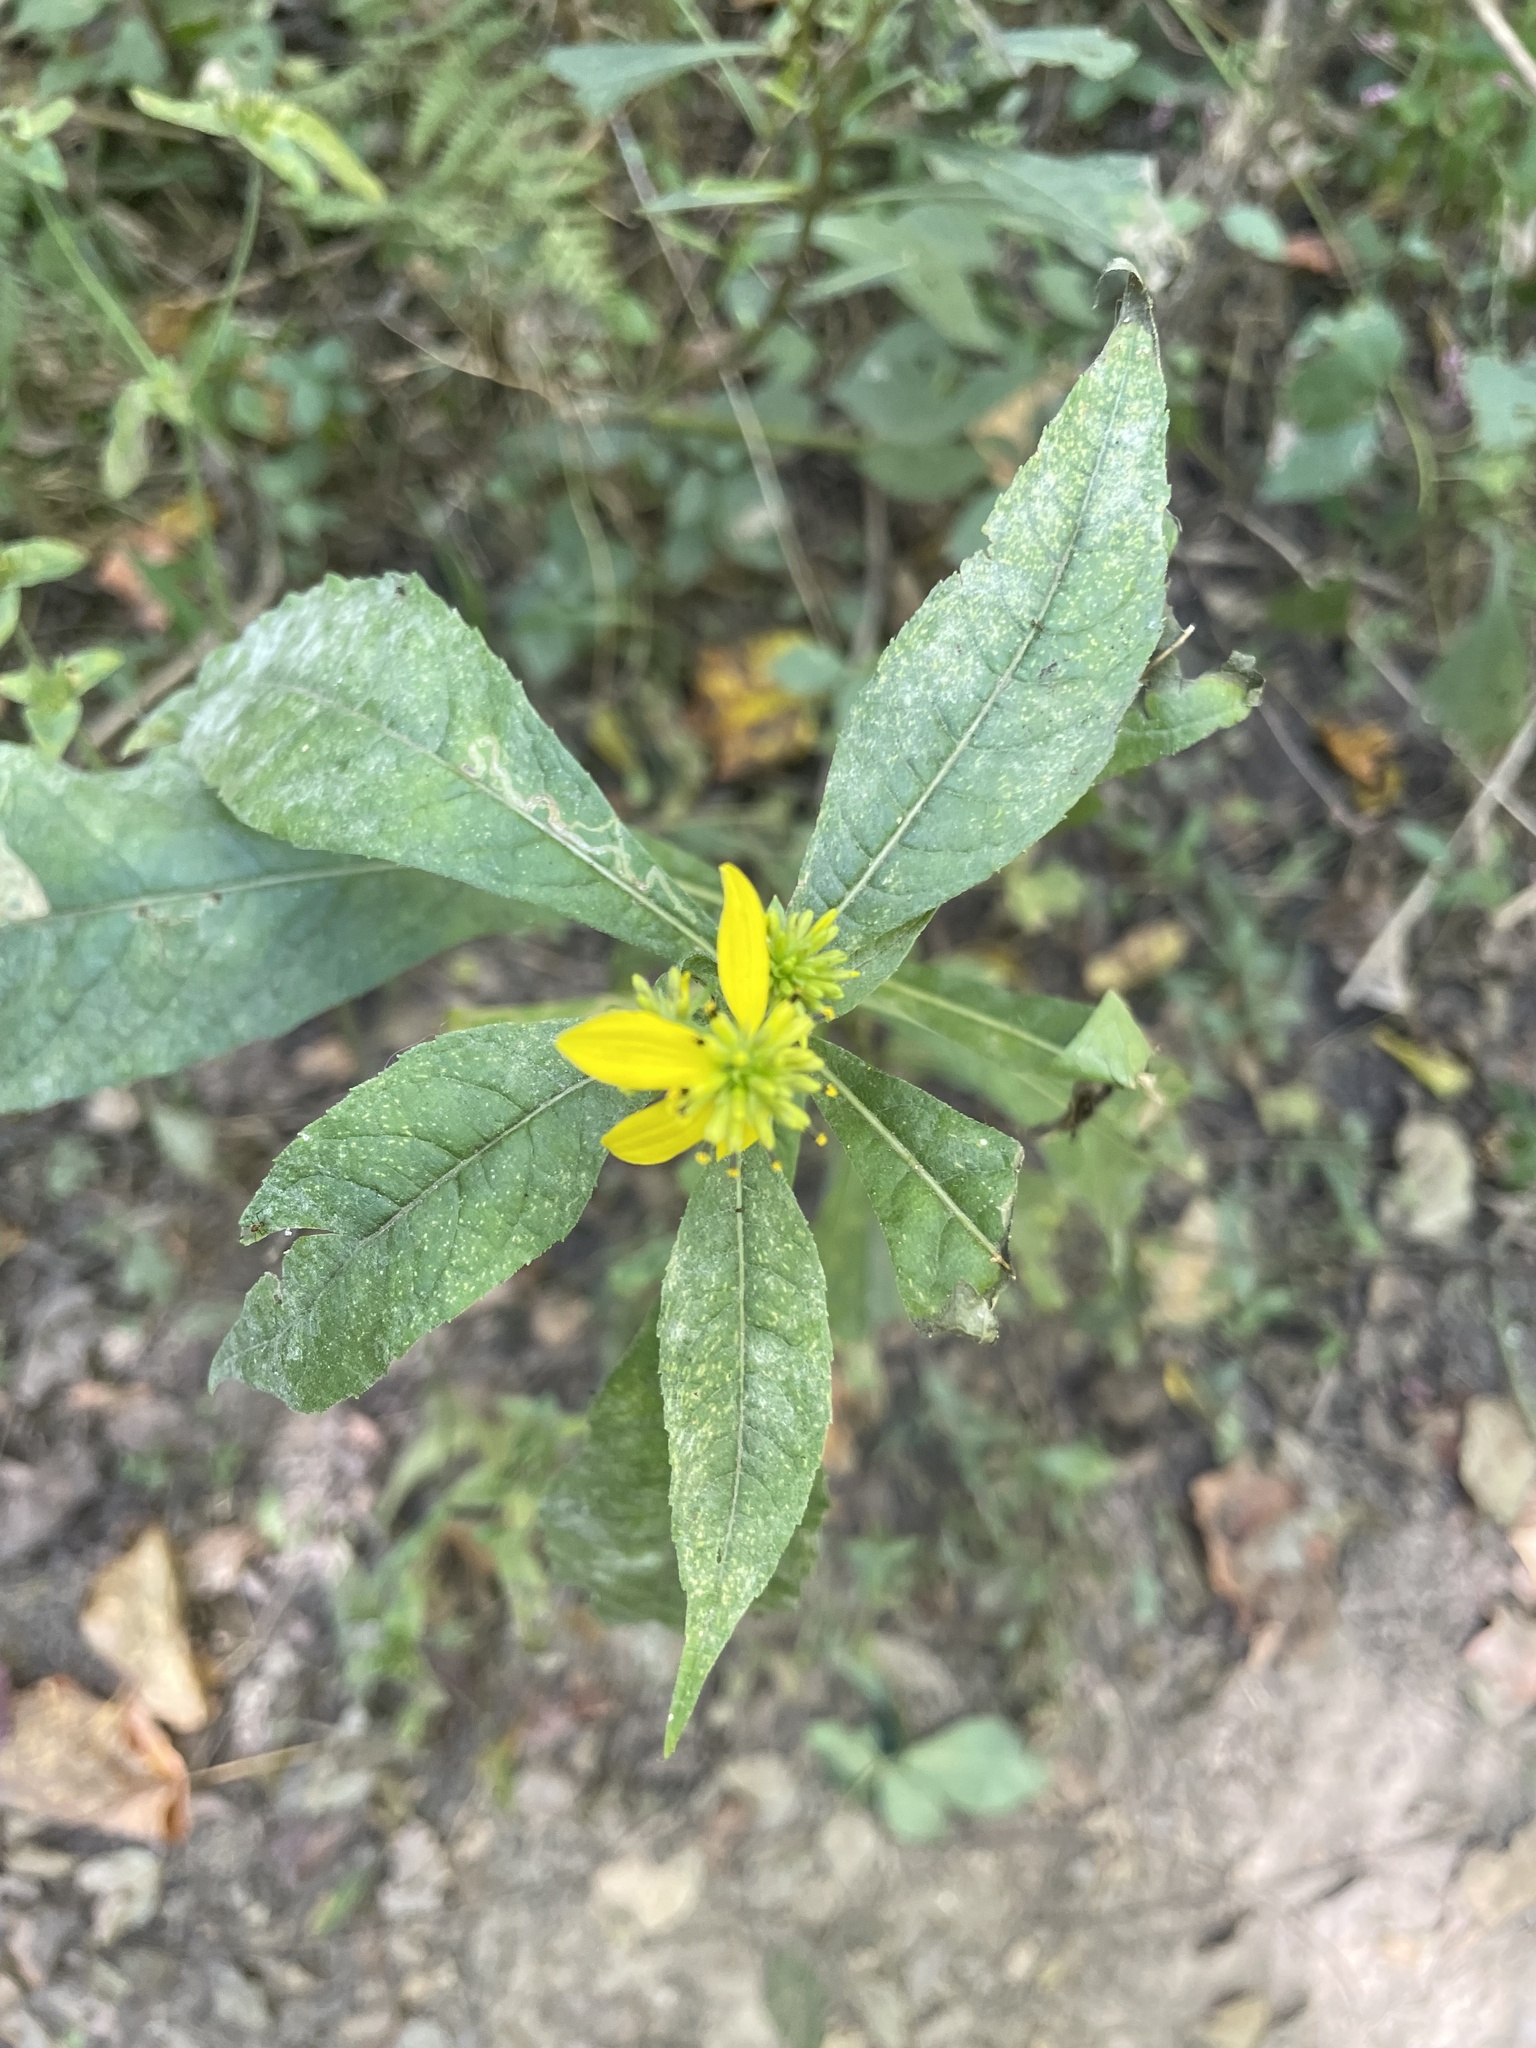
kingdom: Plantae
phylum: Tracheophyta
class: Magnoliopsida
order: Asterales
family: Asteraceae
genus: Verbesina
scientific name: Verbesina alternifolia
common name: Wingstem
